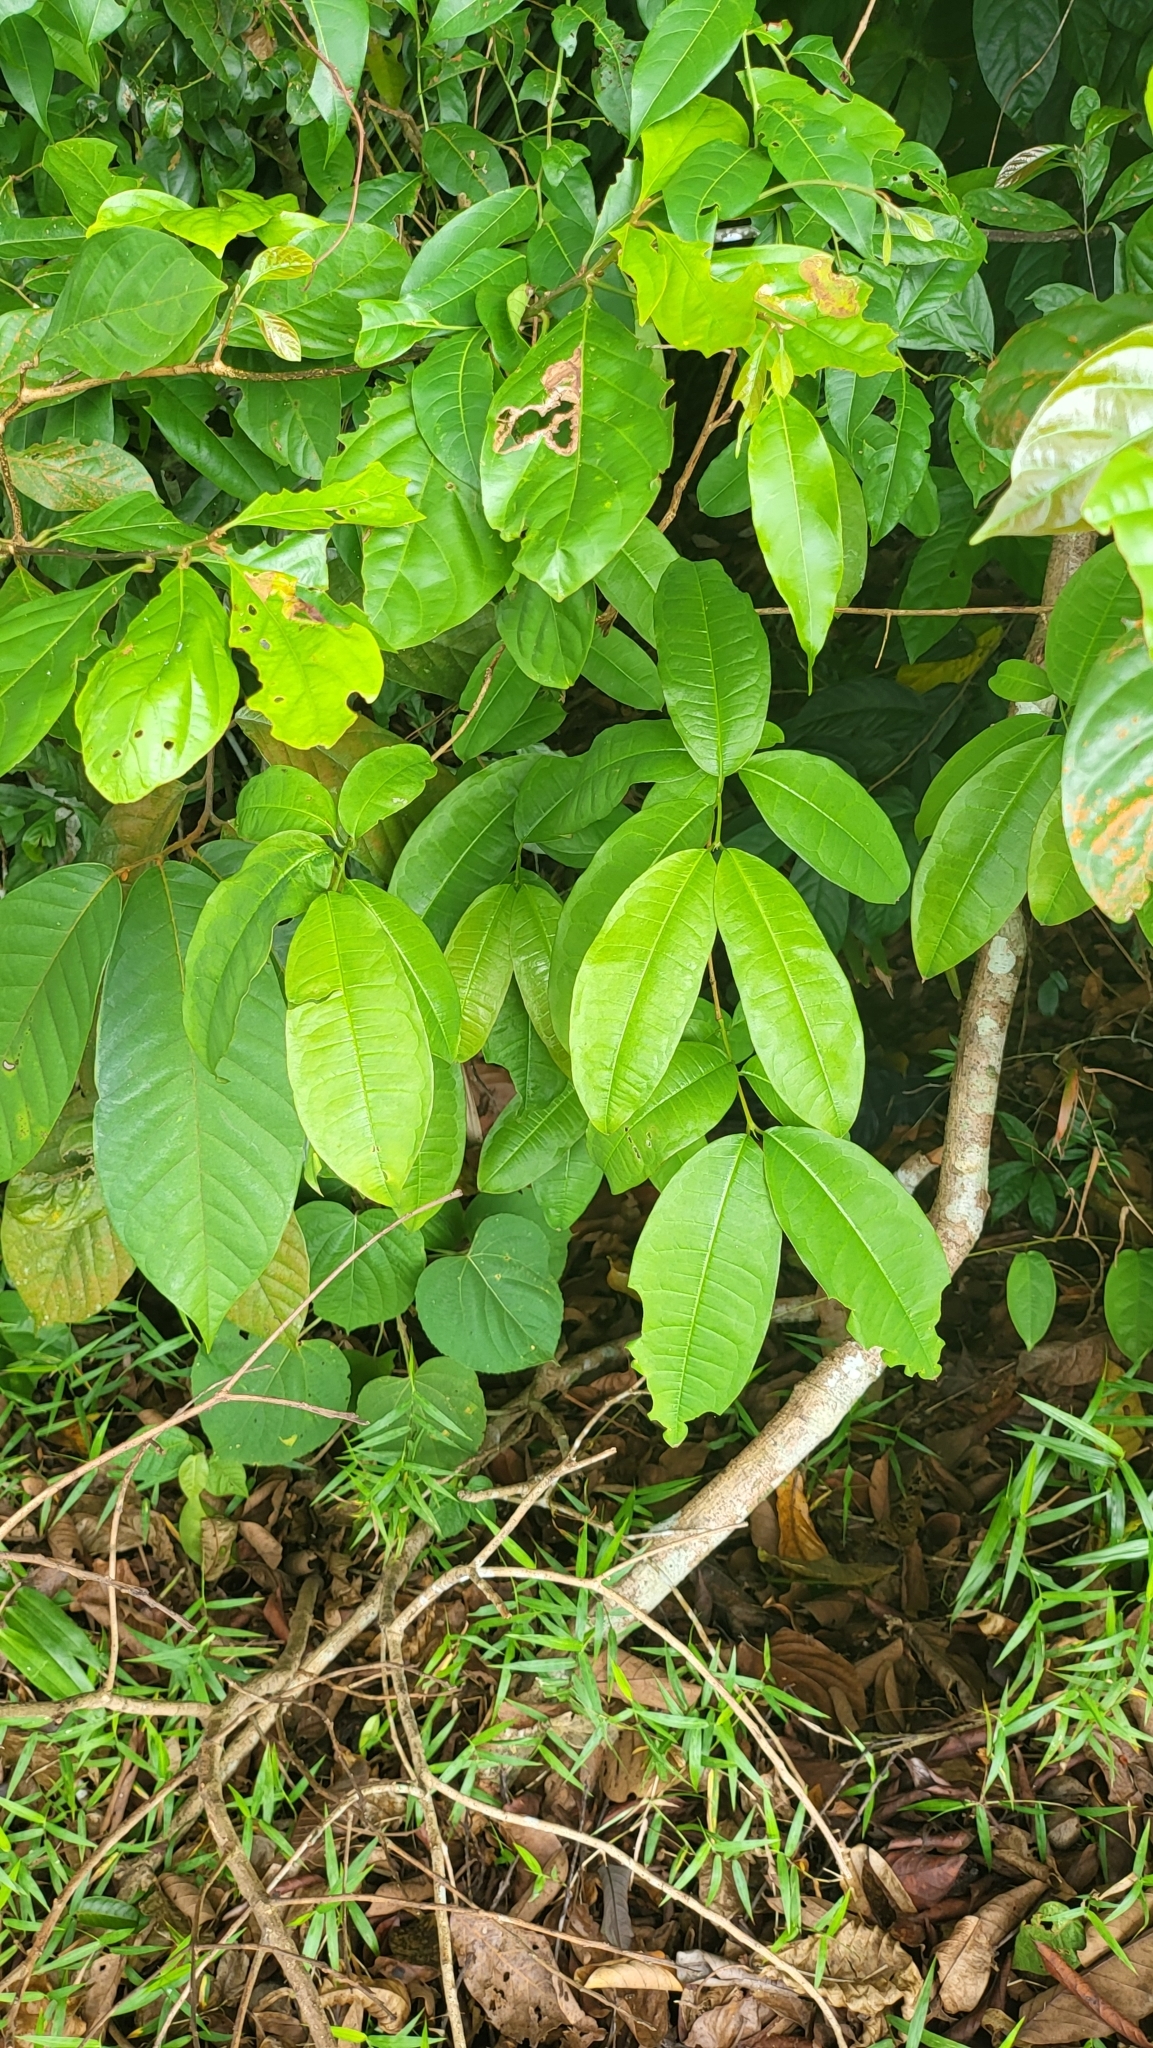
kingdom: Plantae
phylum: Tracheophyta
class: Magnoliopsida
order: Malpighiales
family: Hypericaceae
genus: Cratoxylum
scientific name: Cratoxylum formosum
